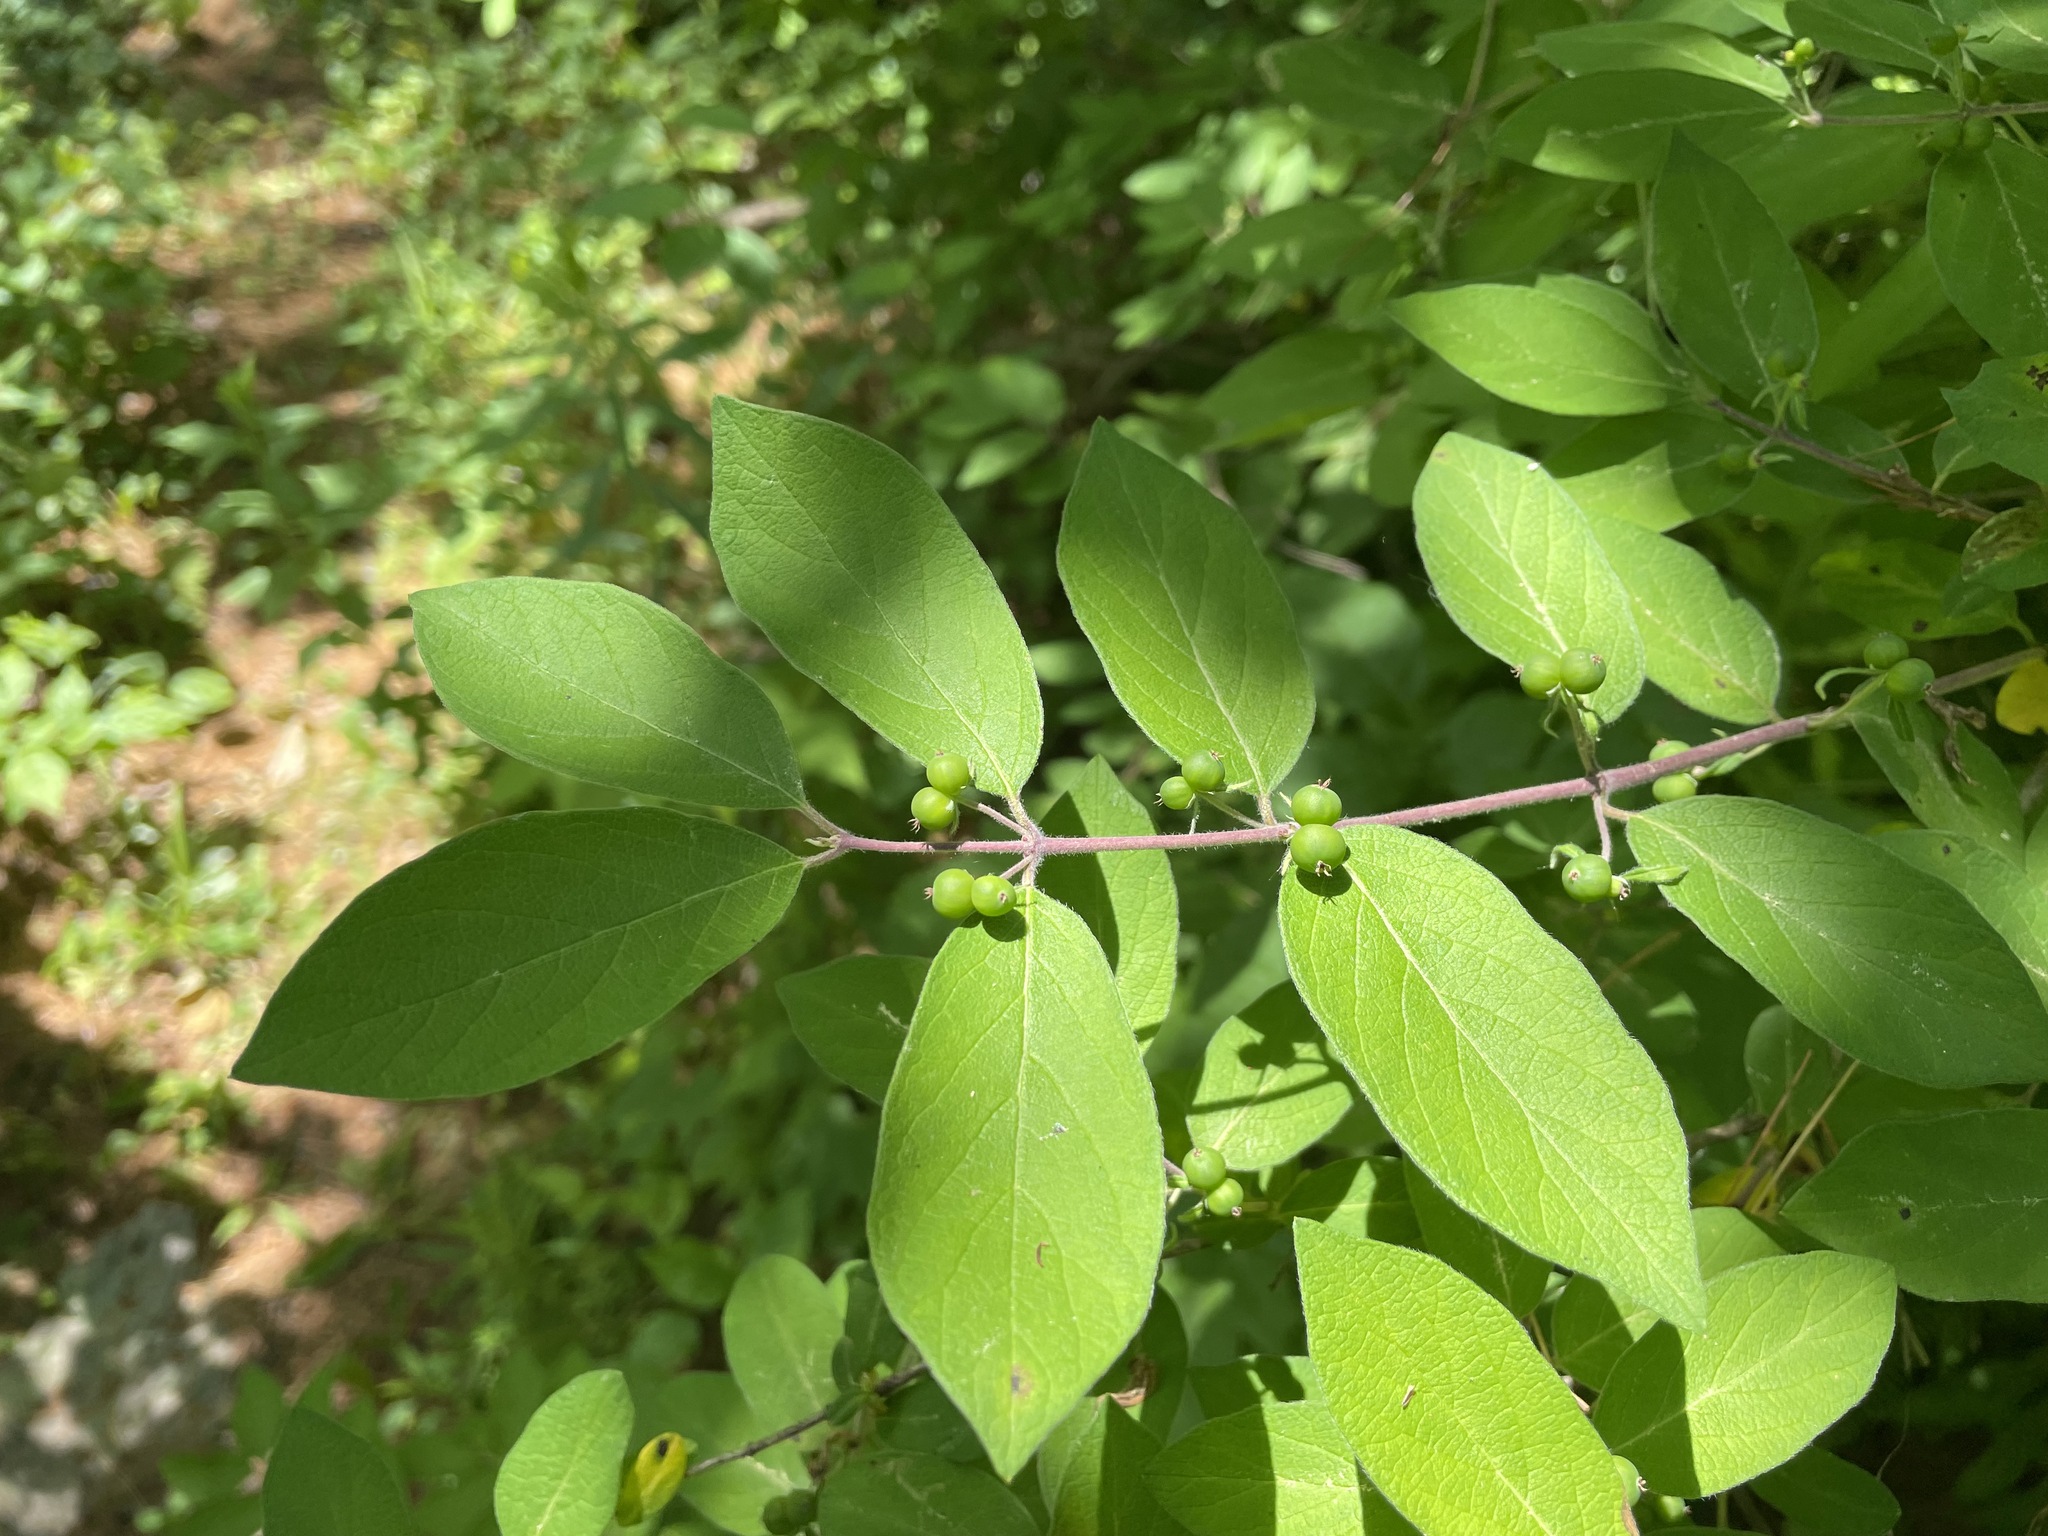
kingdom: Plantae
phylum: Tracheophyta
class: Magnoliopsida
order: Dipsacales
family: Caprifoliaceae
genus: Lonicera
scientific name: Lonicera
